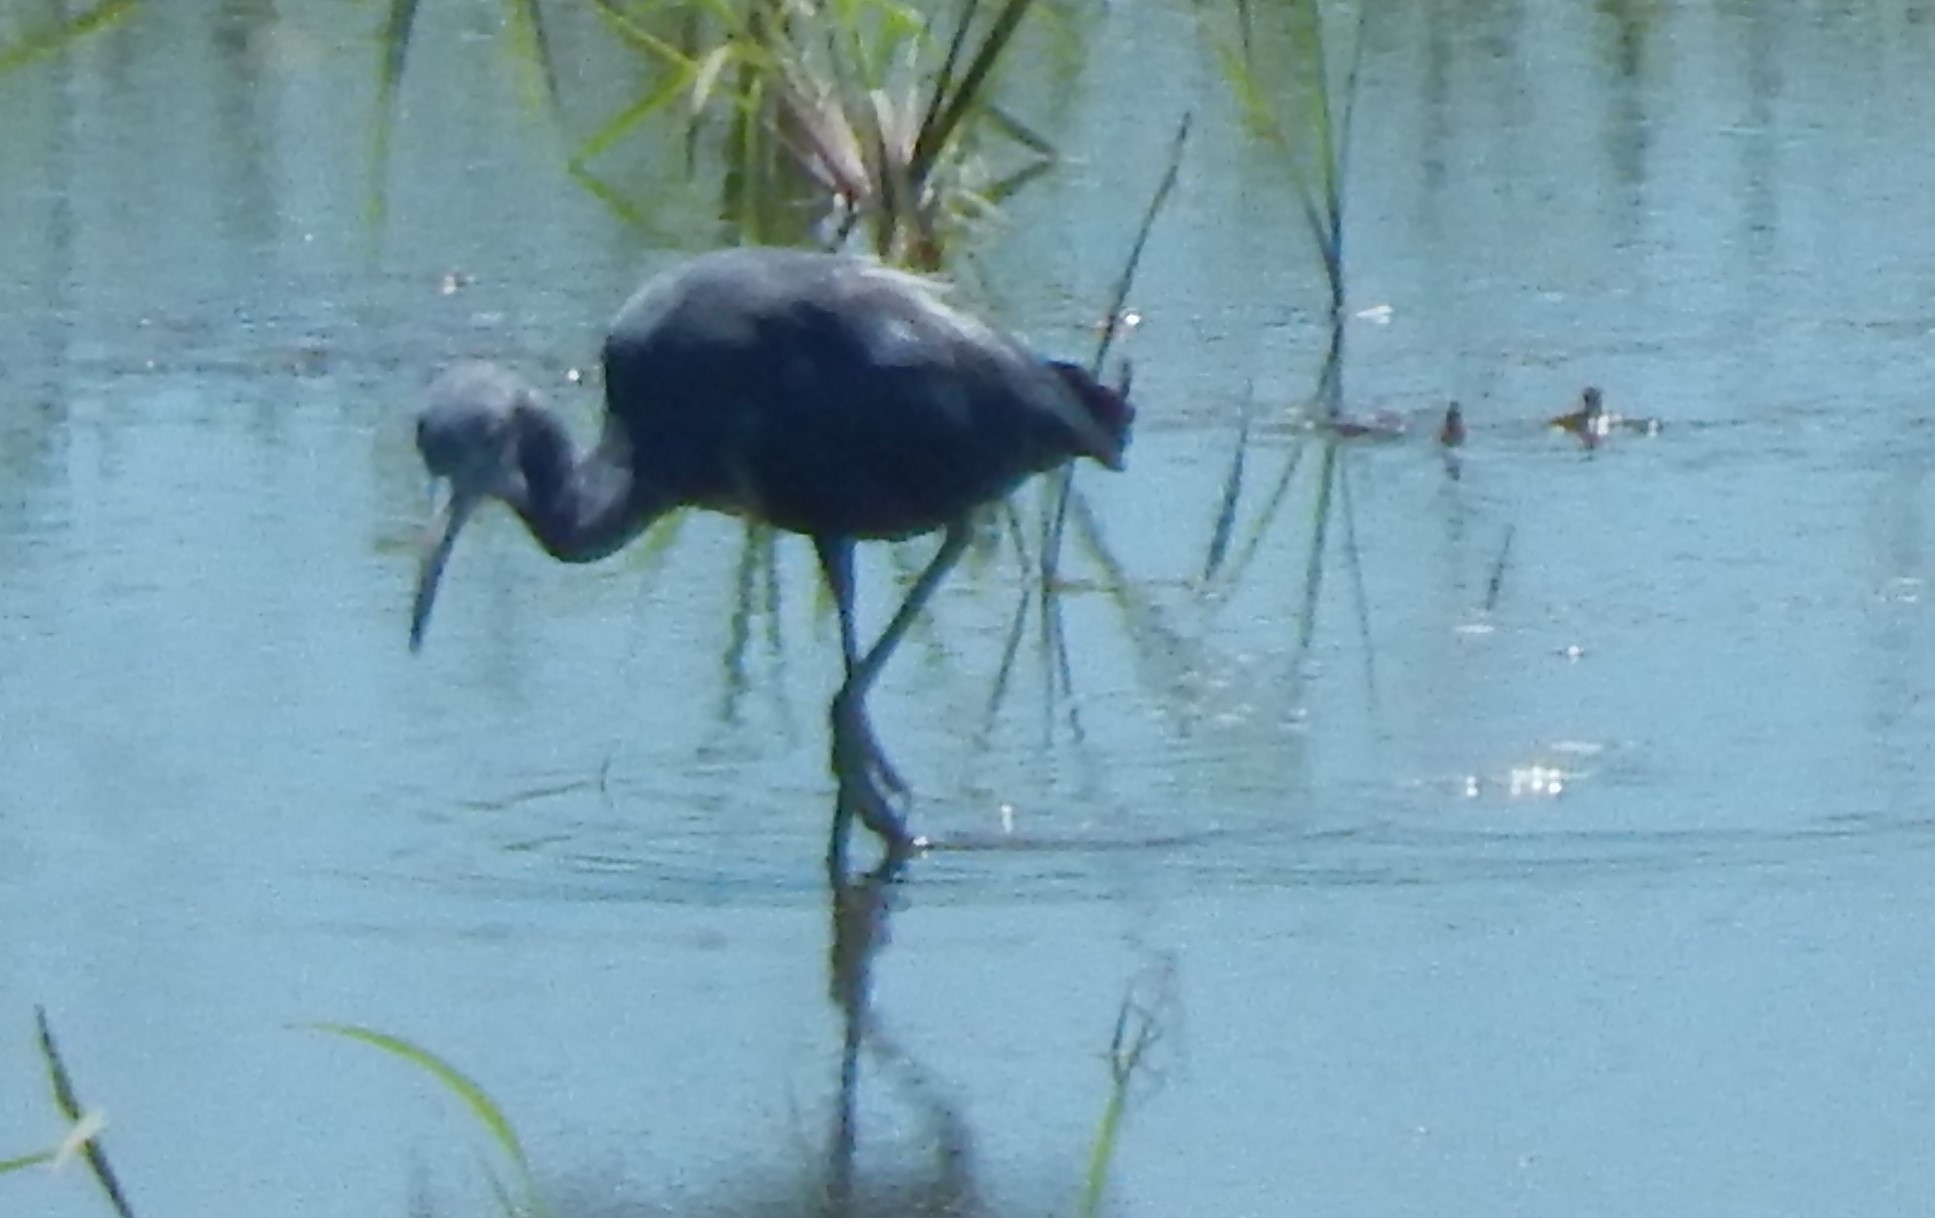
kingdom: Animalia
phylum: Chordata
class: Aves
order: Pelecaniformes
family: Ardeidae
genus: Egretta
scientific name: Egretta caerulea
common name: Little blue heron
